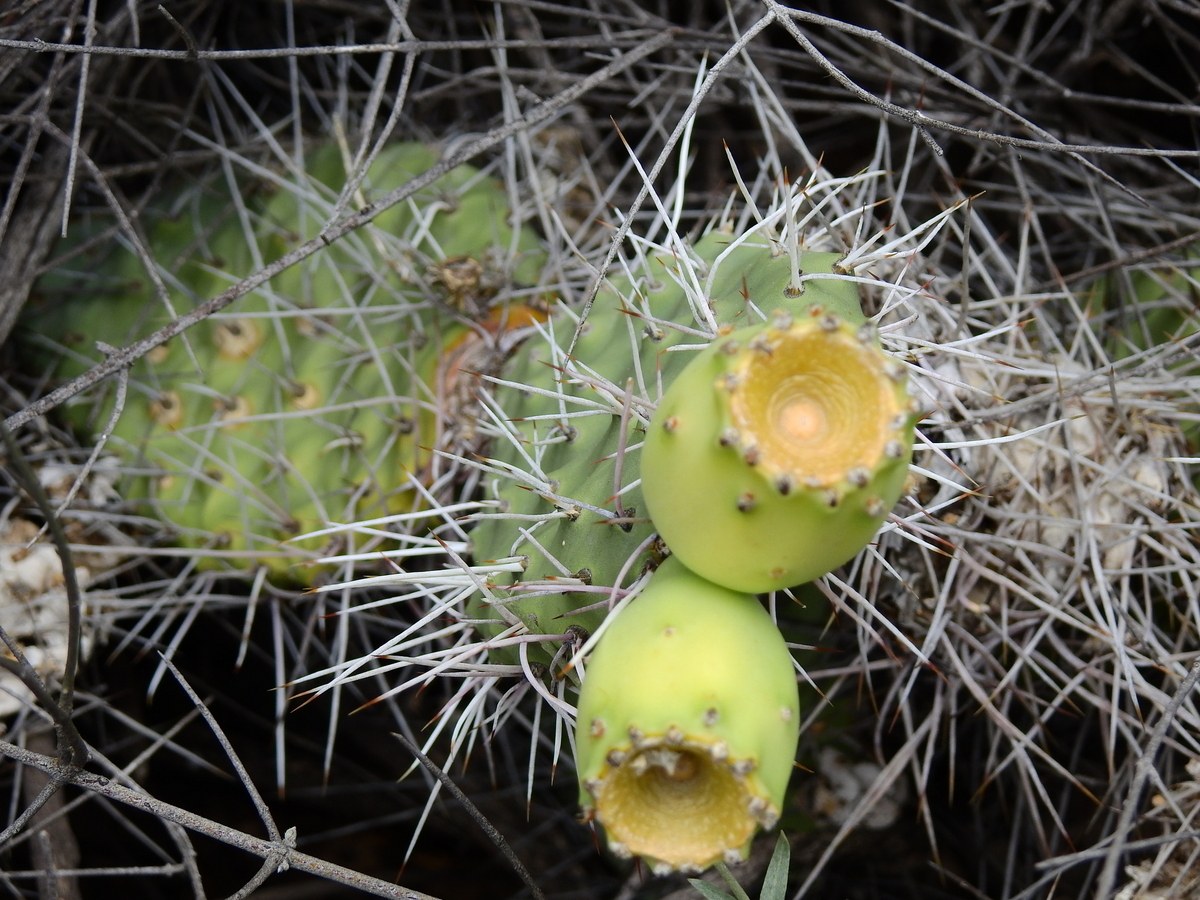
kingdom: Plantae
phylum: Tracheophyta
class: Magnoliopsida
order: Caryophyllales
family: Cactaceae
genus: Opuntia
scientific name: Opuntia sulphurea
